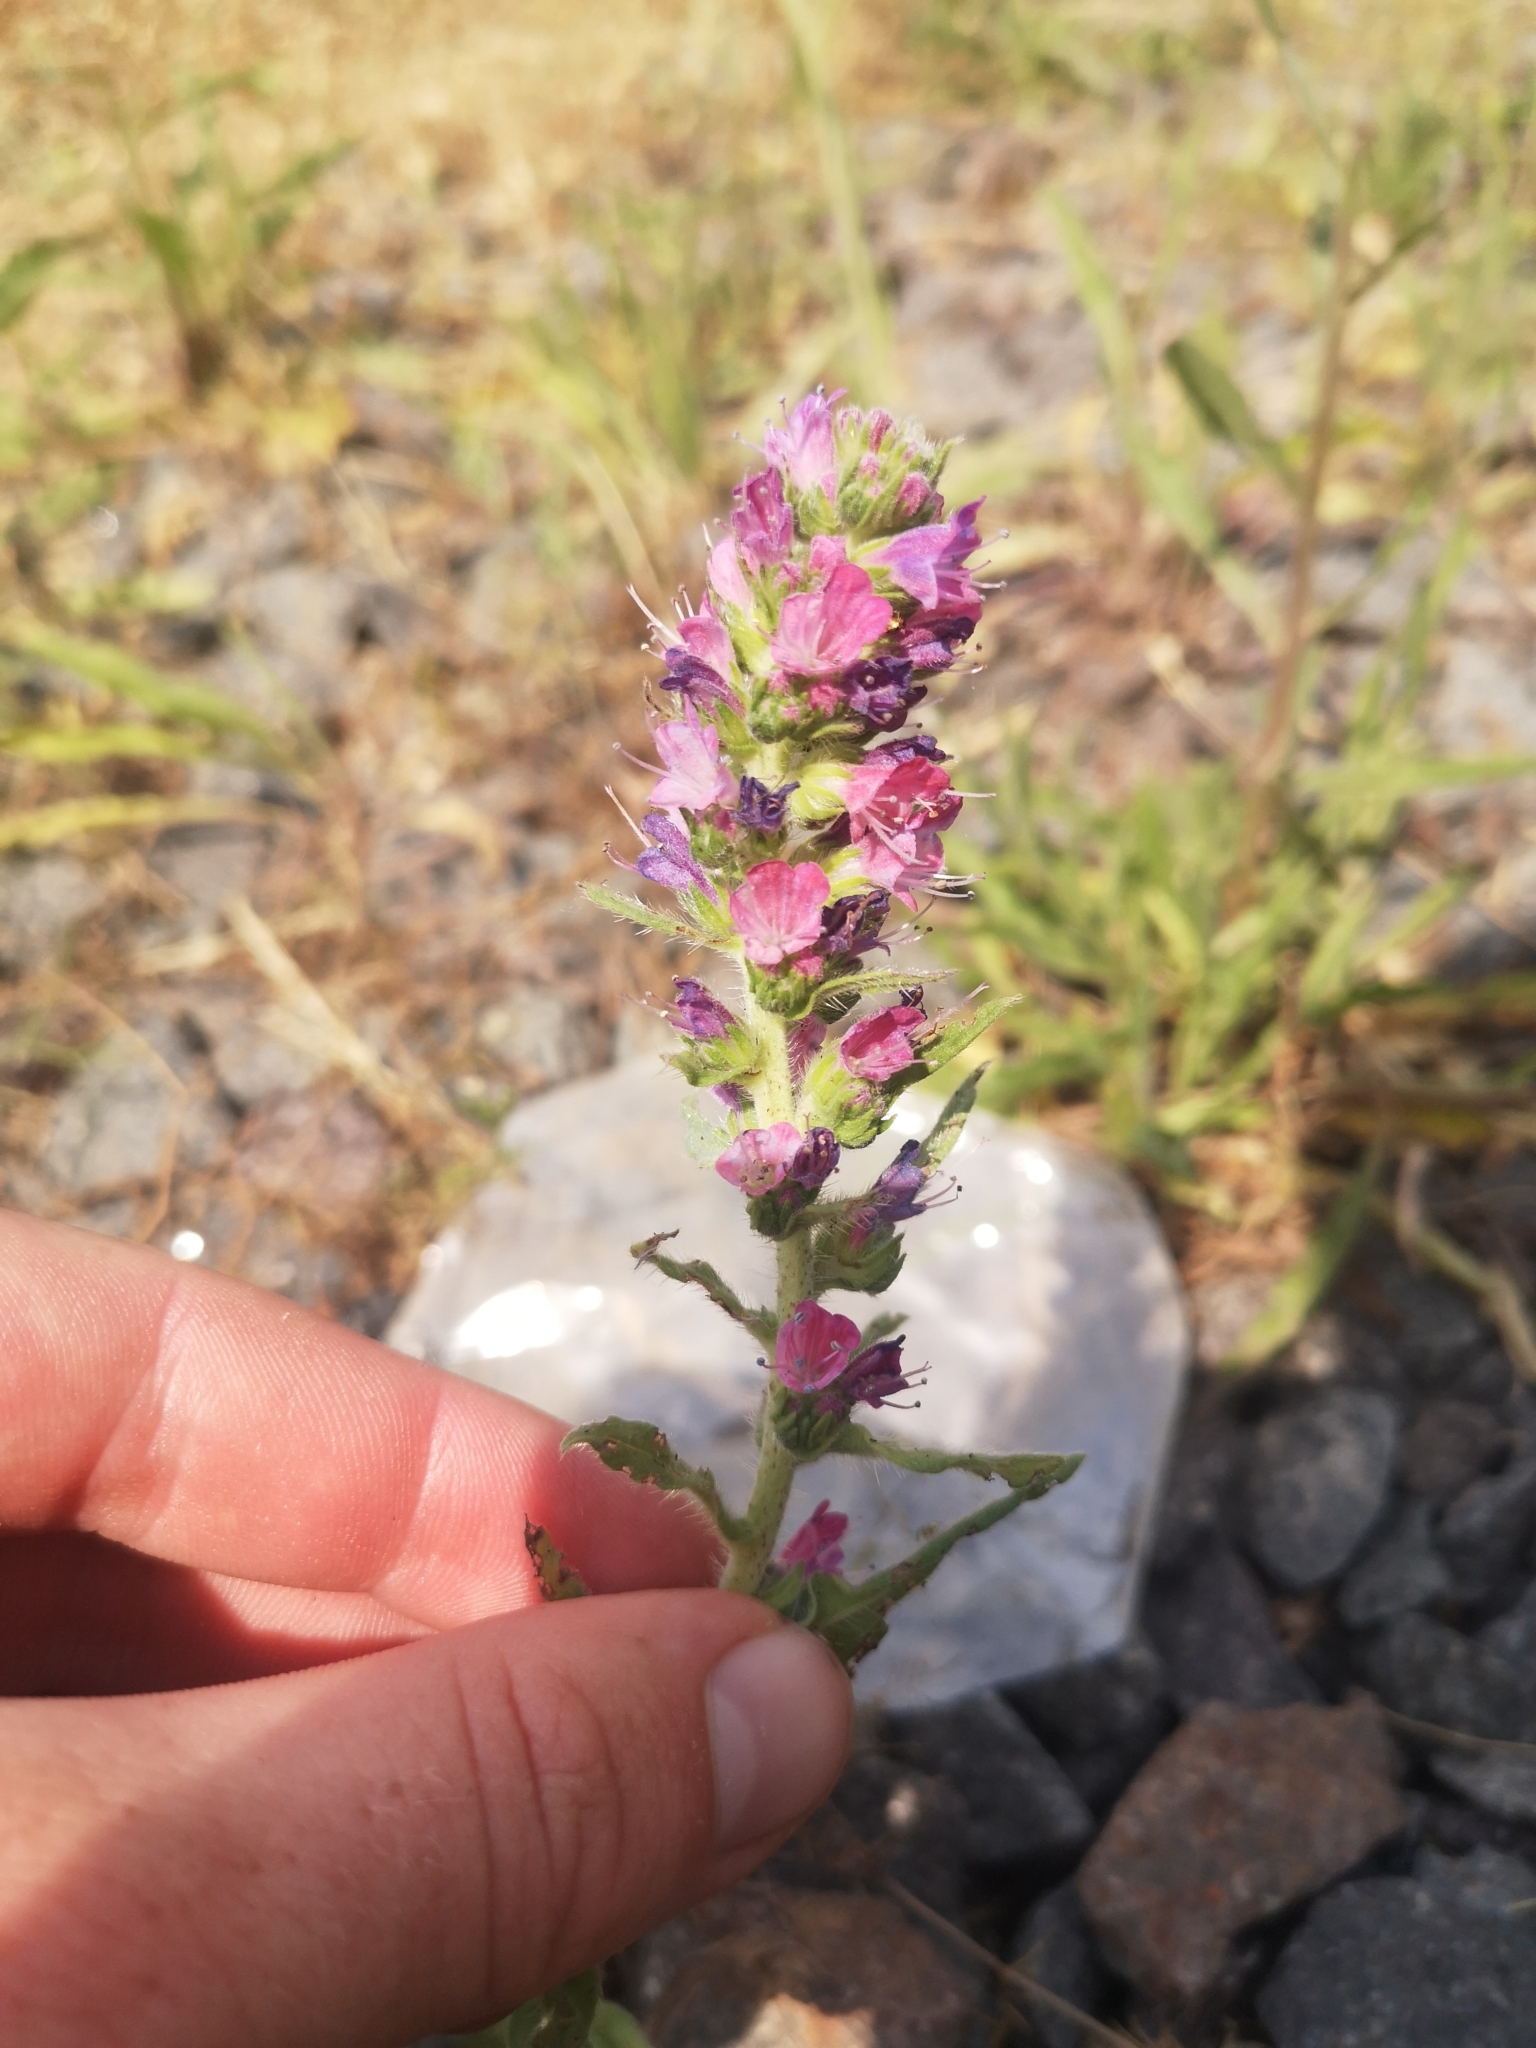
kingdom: Plantae
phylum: Tracheophyta
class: Magnoliopsida
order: Boraginales
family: Boraginaceae
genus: Echium
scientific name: Echium vulgare
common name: Common viper's bugloss
